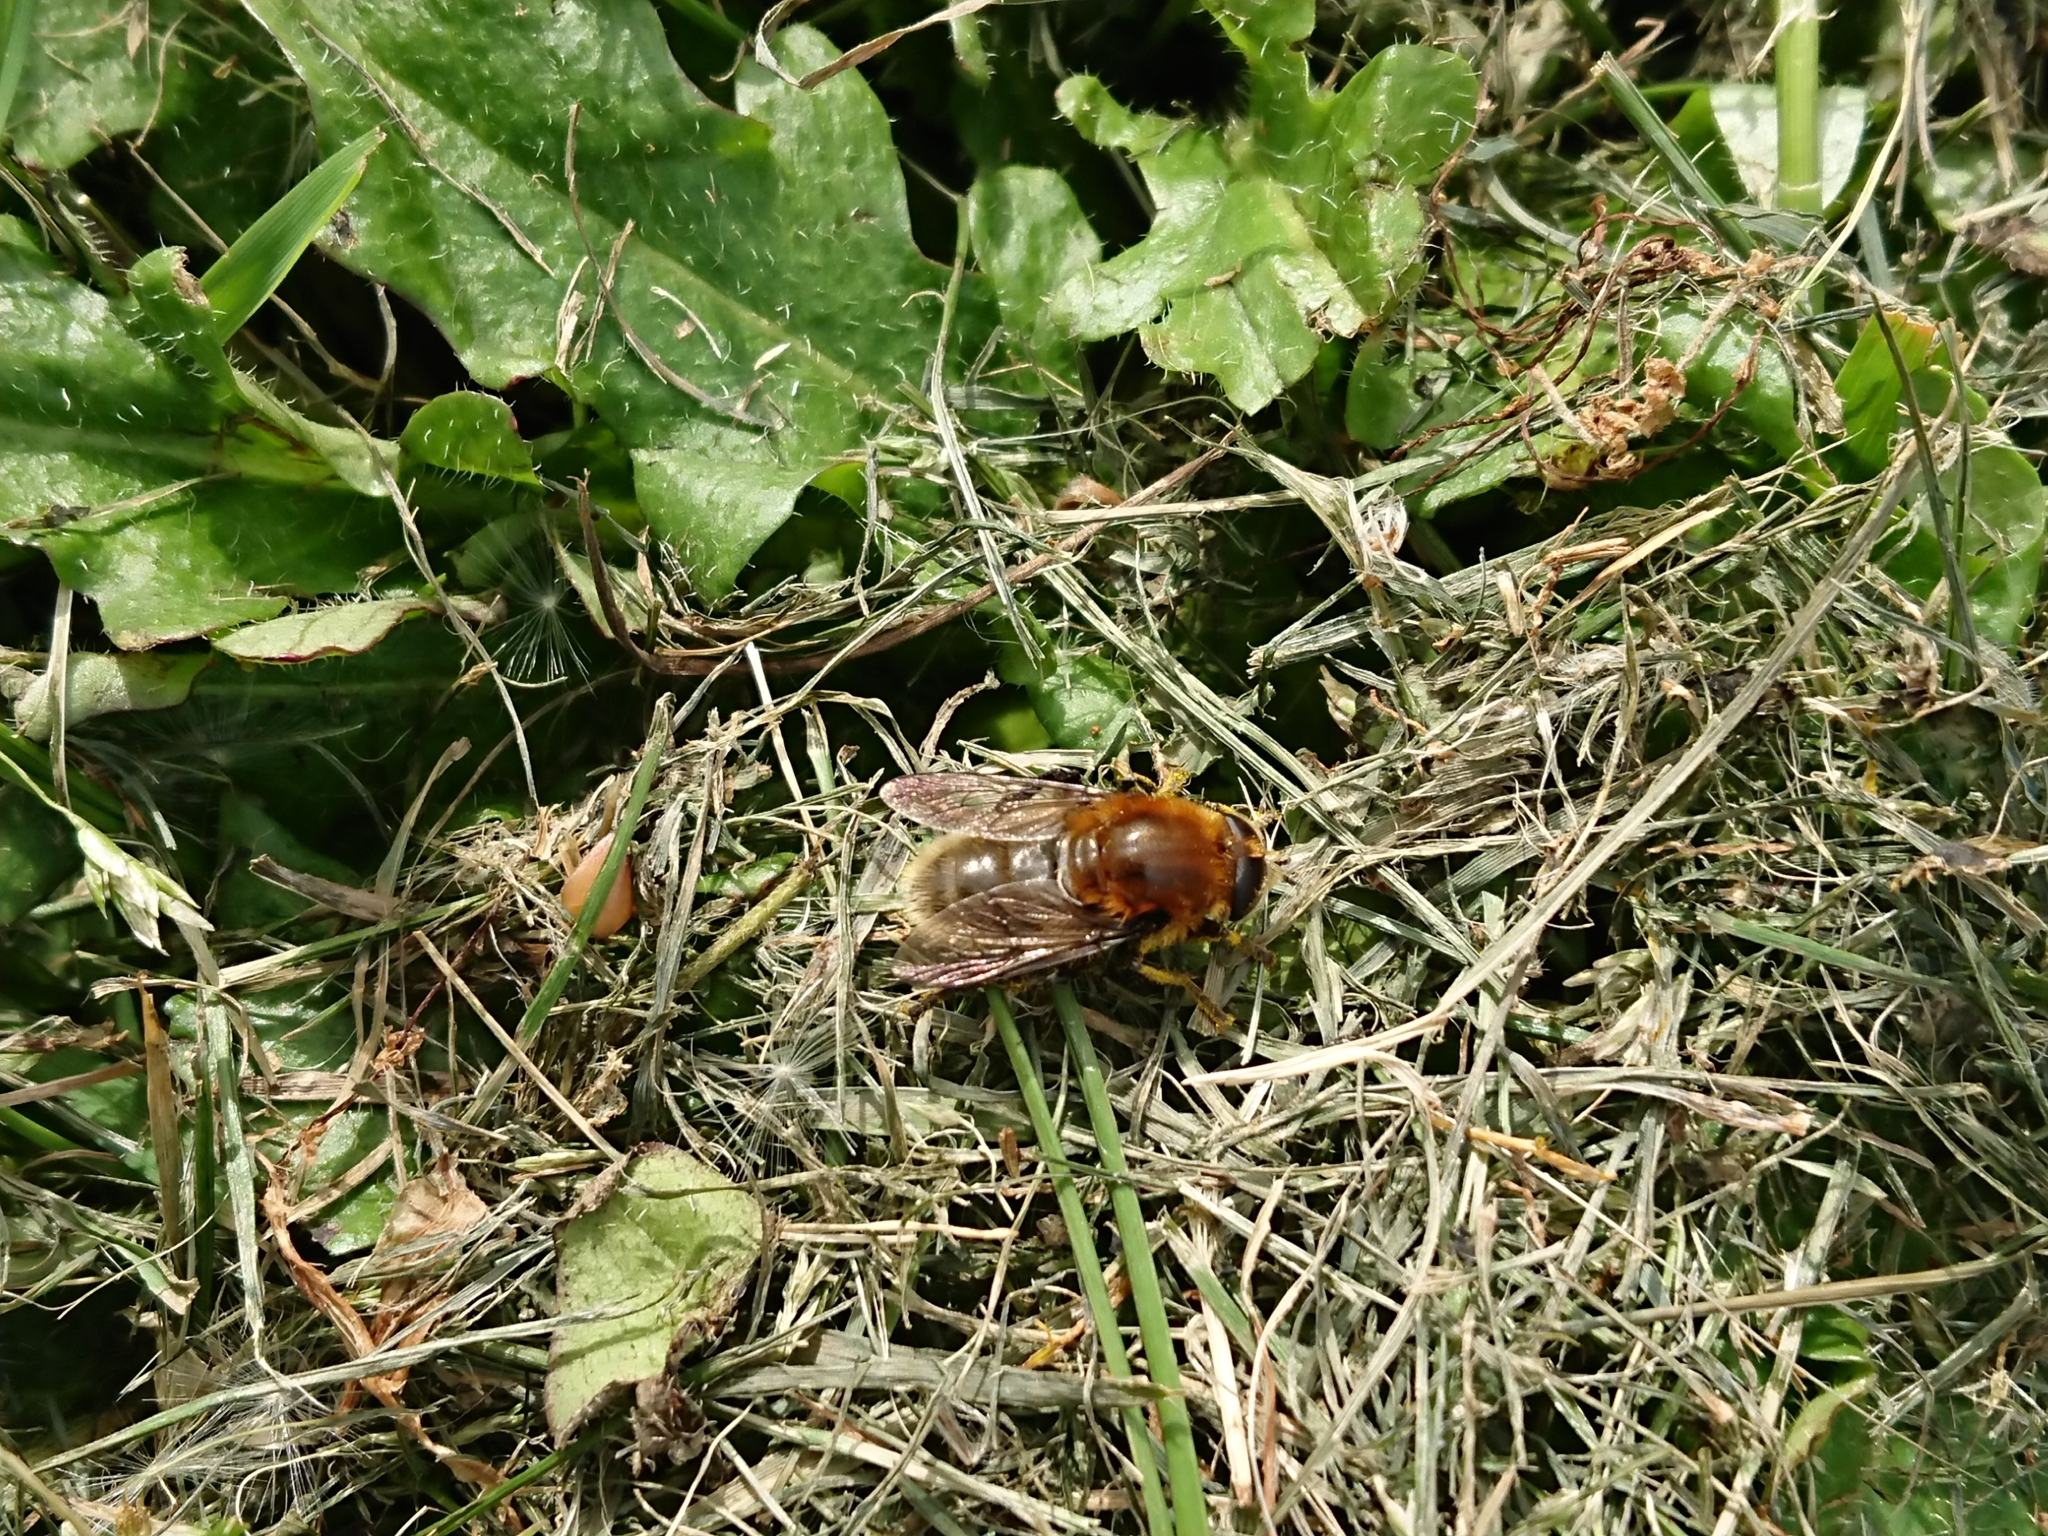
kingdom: Animalia
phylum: Arthropoda
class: Insecta
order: Diptera
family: Syrphidae
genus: Merodon
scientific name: Merodon equestris
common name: Greater bulb-fly
